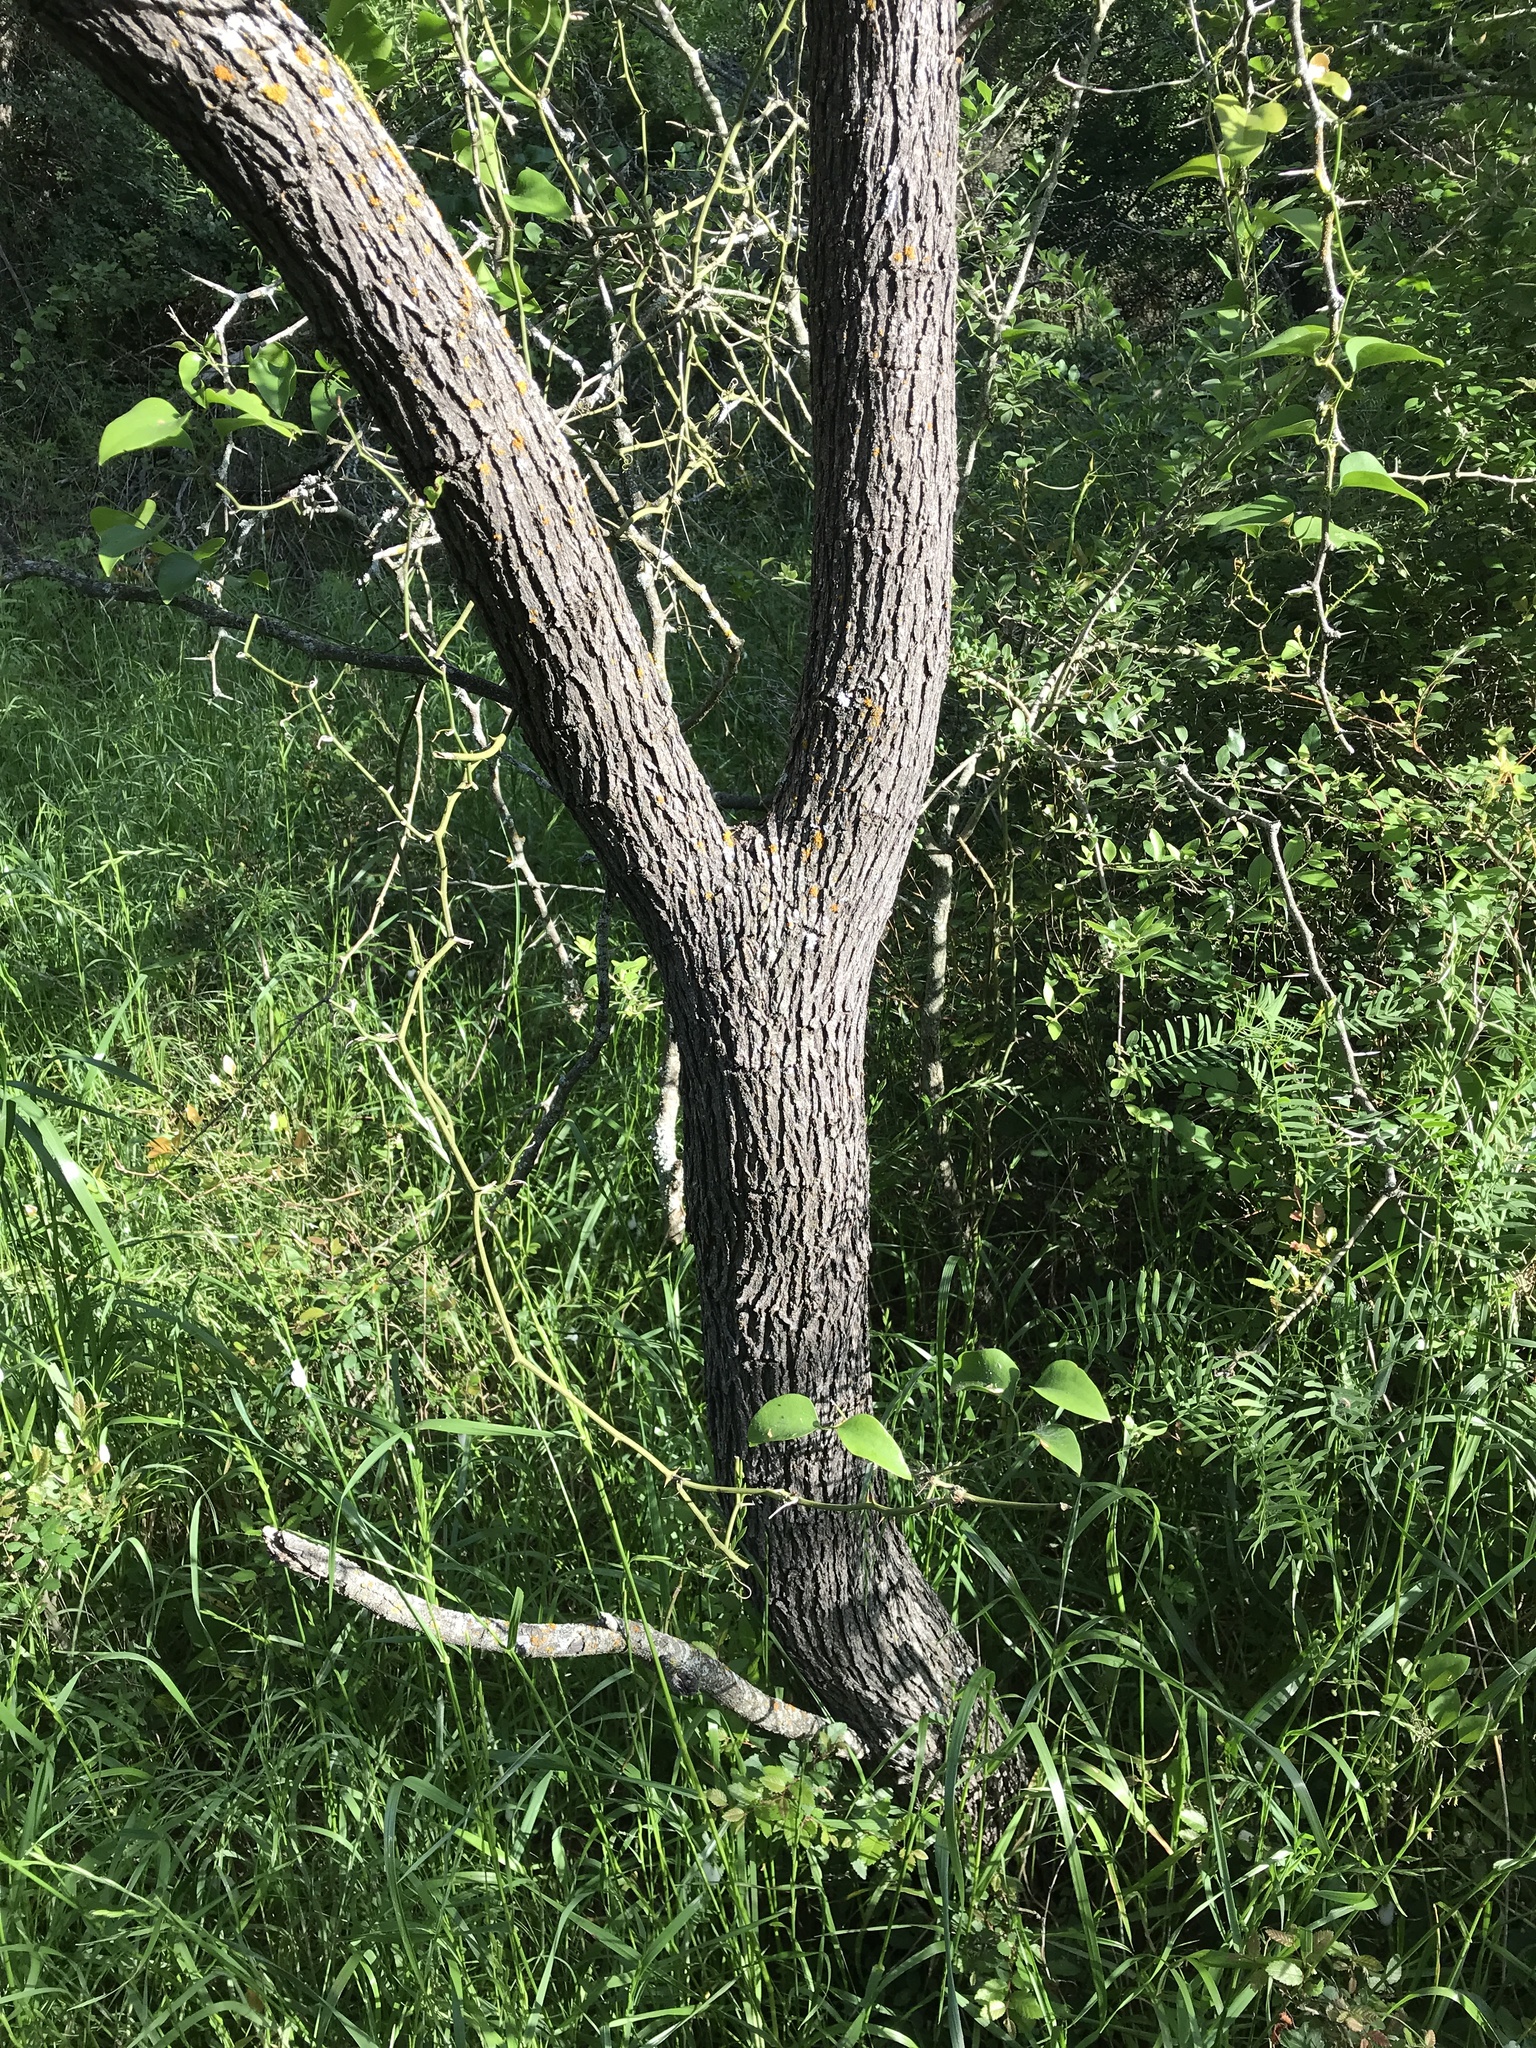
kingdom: Plantae
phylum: Tracheophyta
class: Magnoliopsida
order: Fabales
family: Fabaceae
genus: Prosopis
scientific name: Prosopis glandulosa
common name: Honey mesquite
